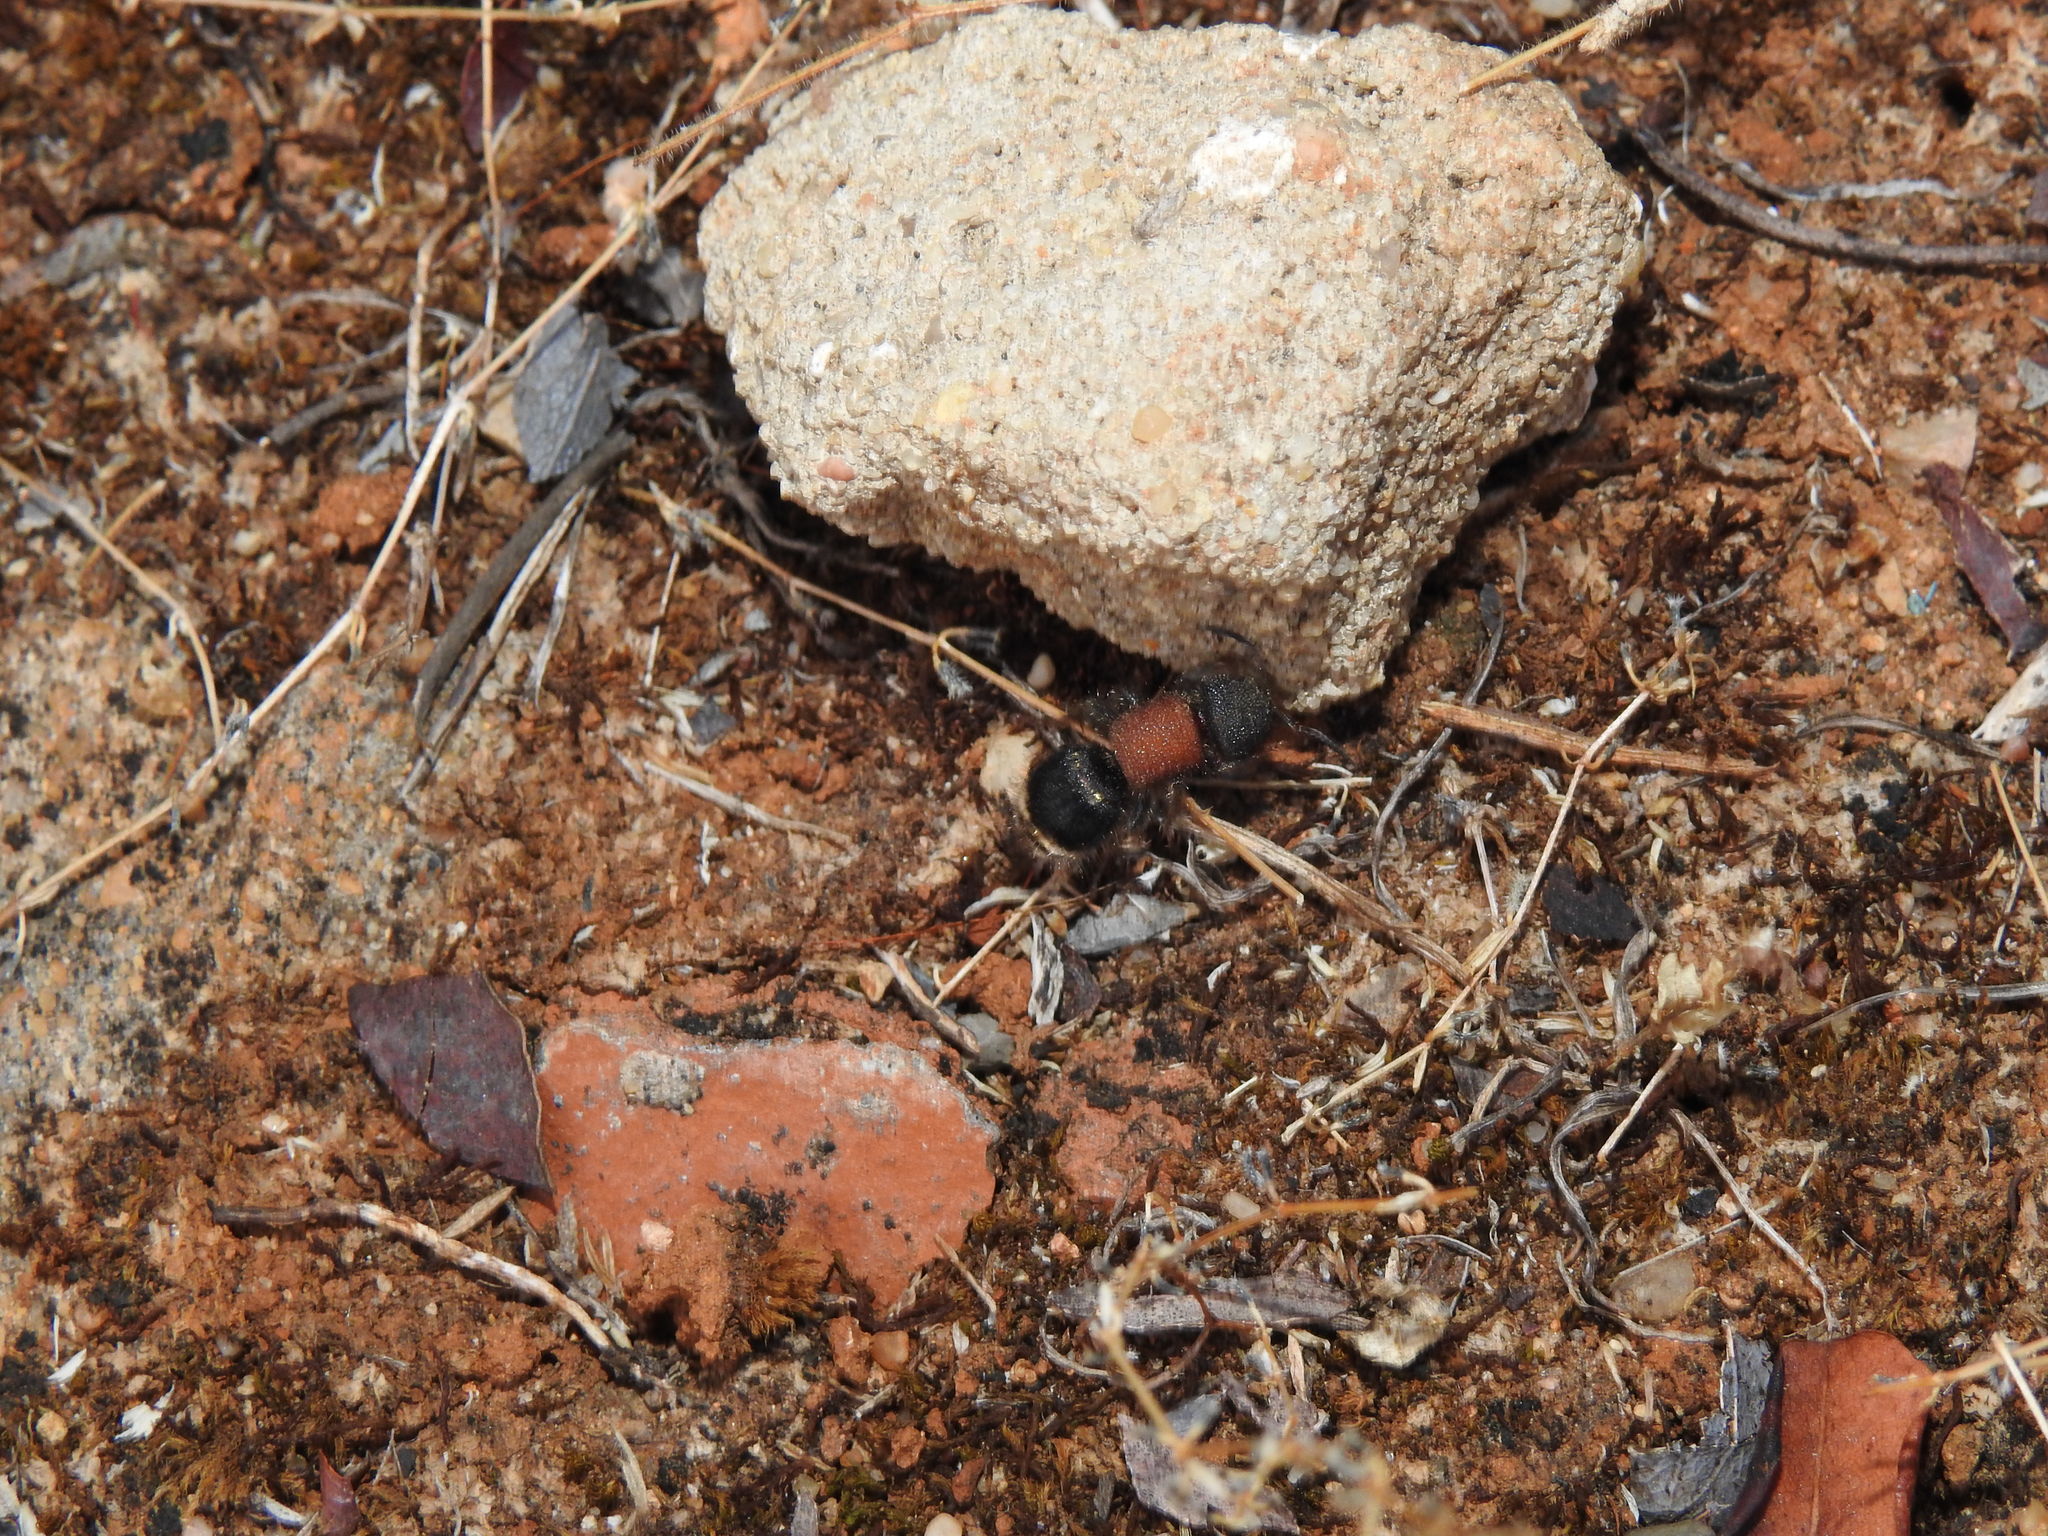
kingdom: Animalia
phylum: Arthropoda
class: Insecta
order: Hymenoptera
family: Mutillidae
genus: Tropidotilla
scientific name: Tropidotilla litoralis
